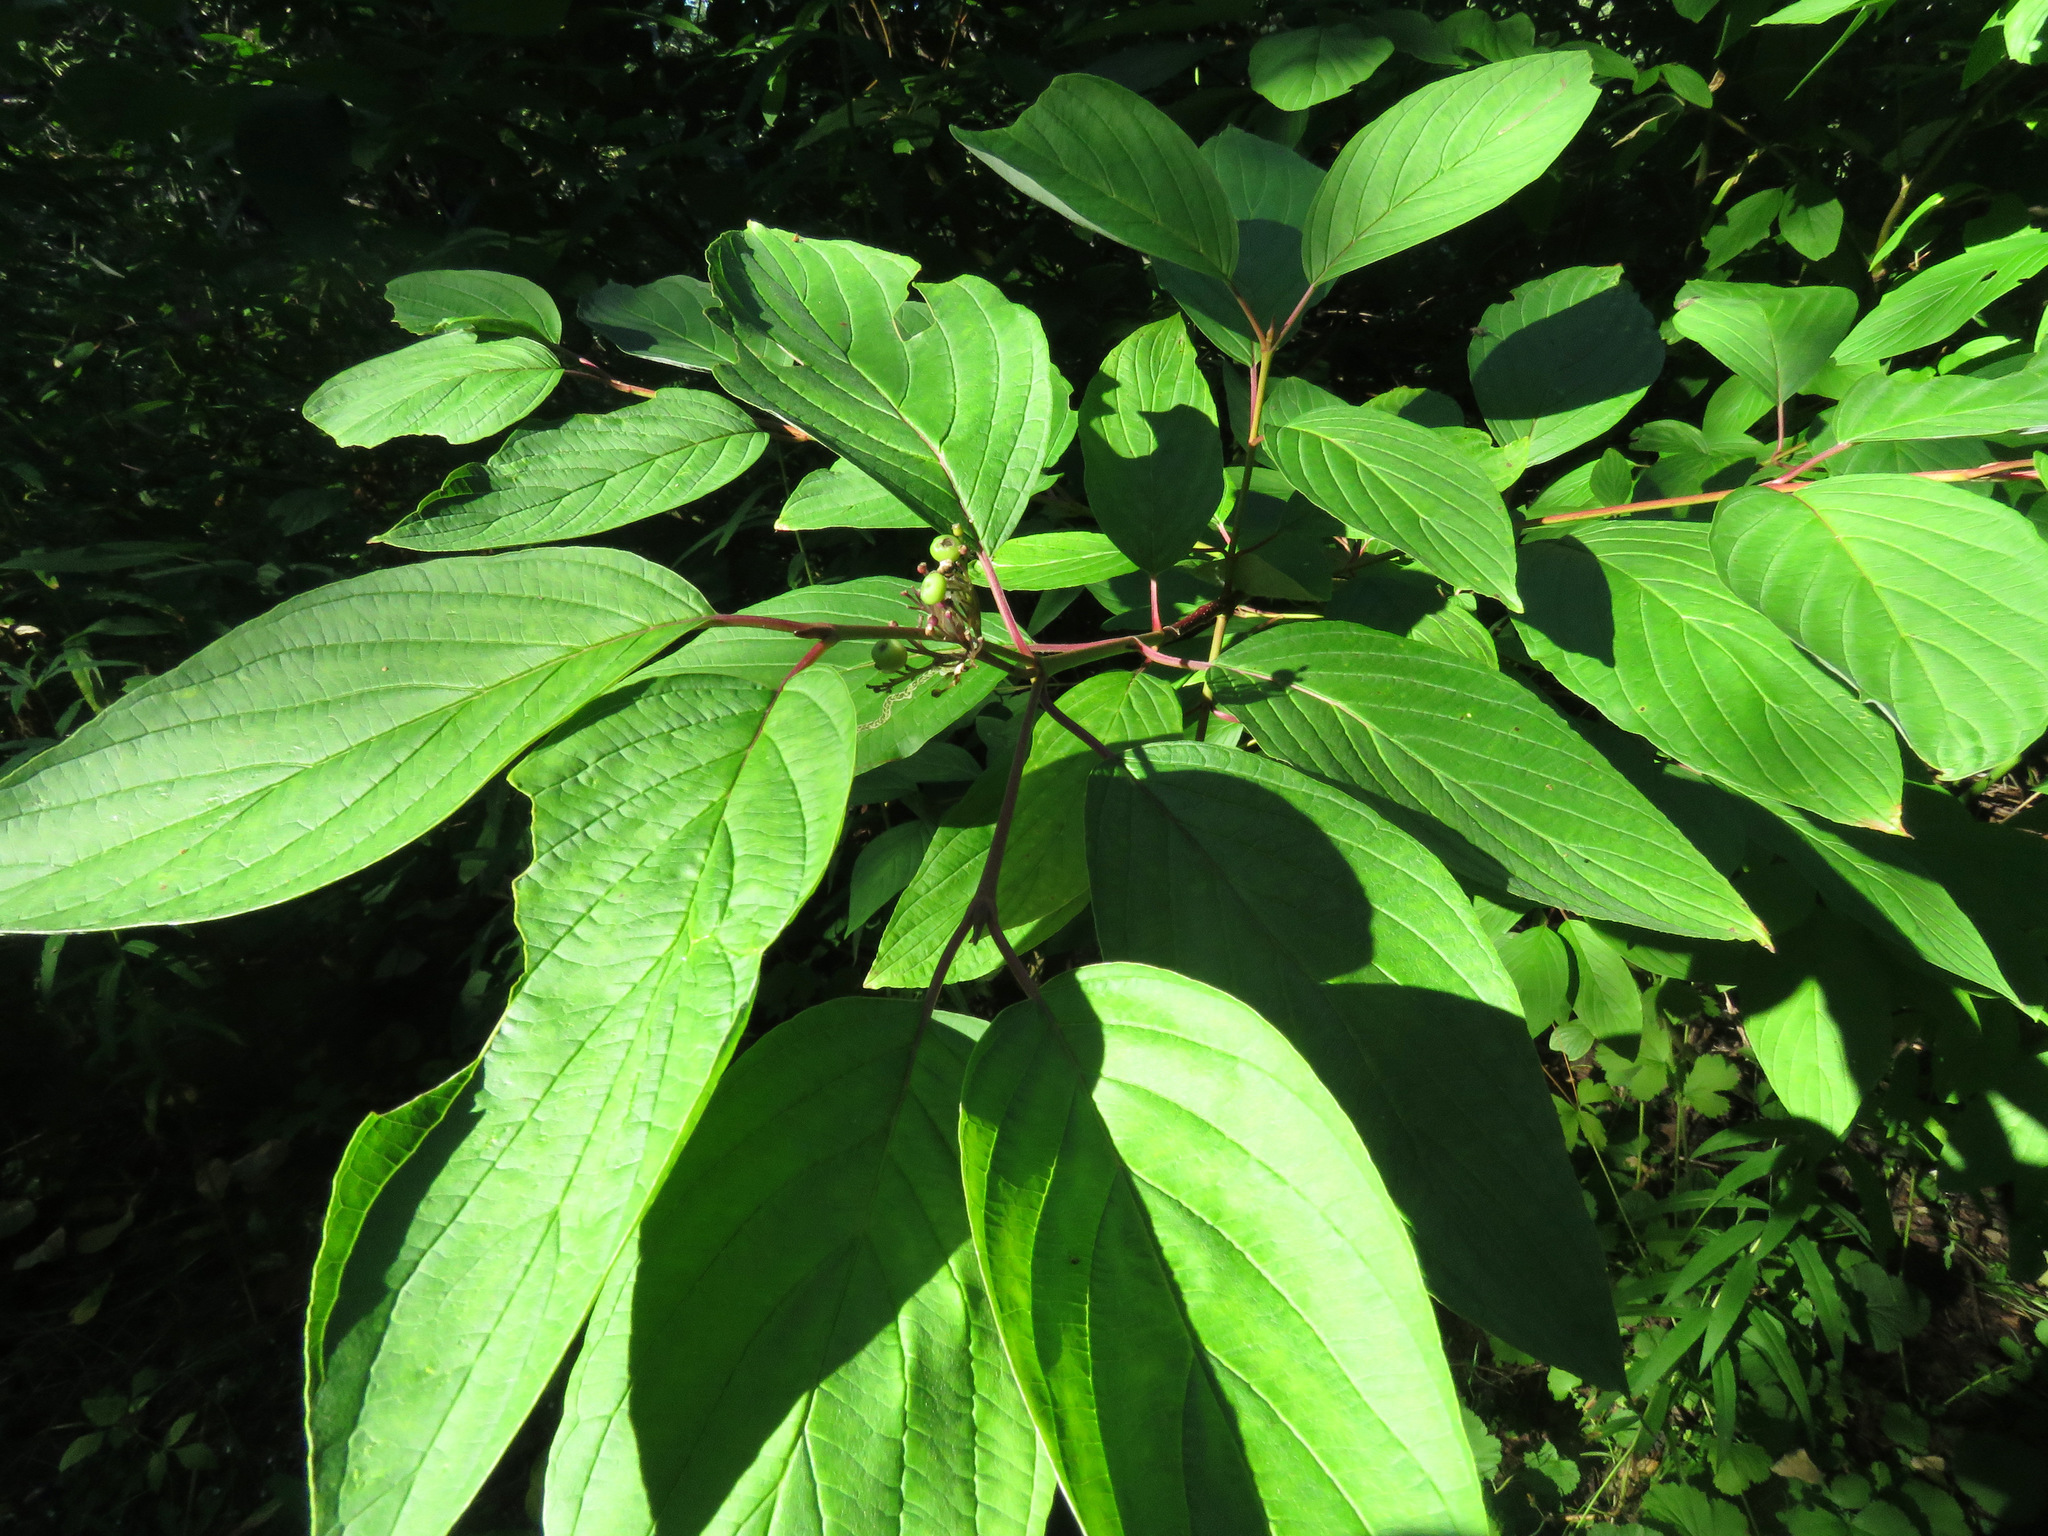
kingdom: Plantae
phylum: Tracheophyta
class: Magnoliopsida
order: Cornales
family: Cornaceae
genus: Cornus
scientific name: Cornus sericea
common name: Red-osier dogwood
